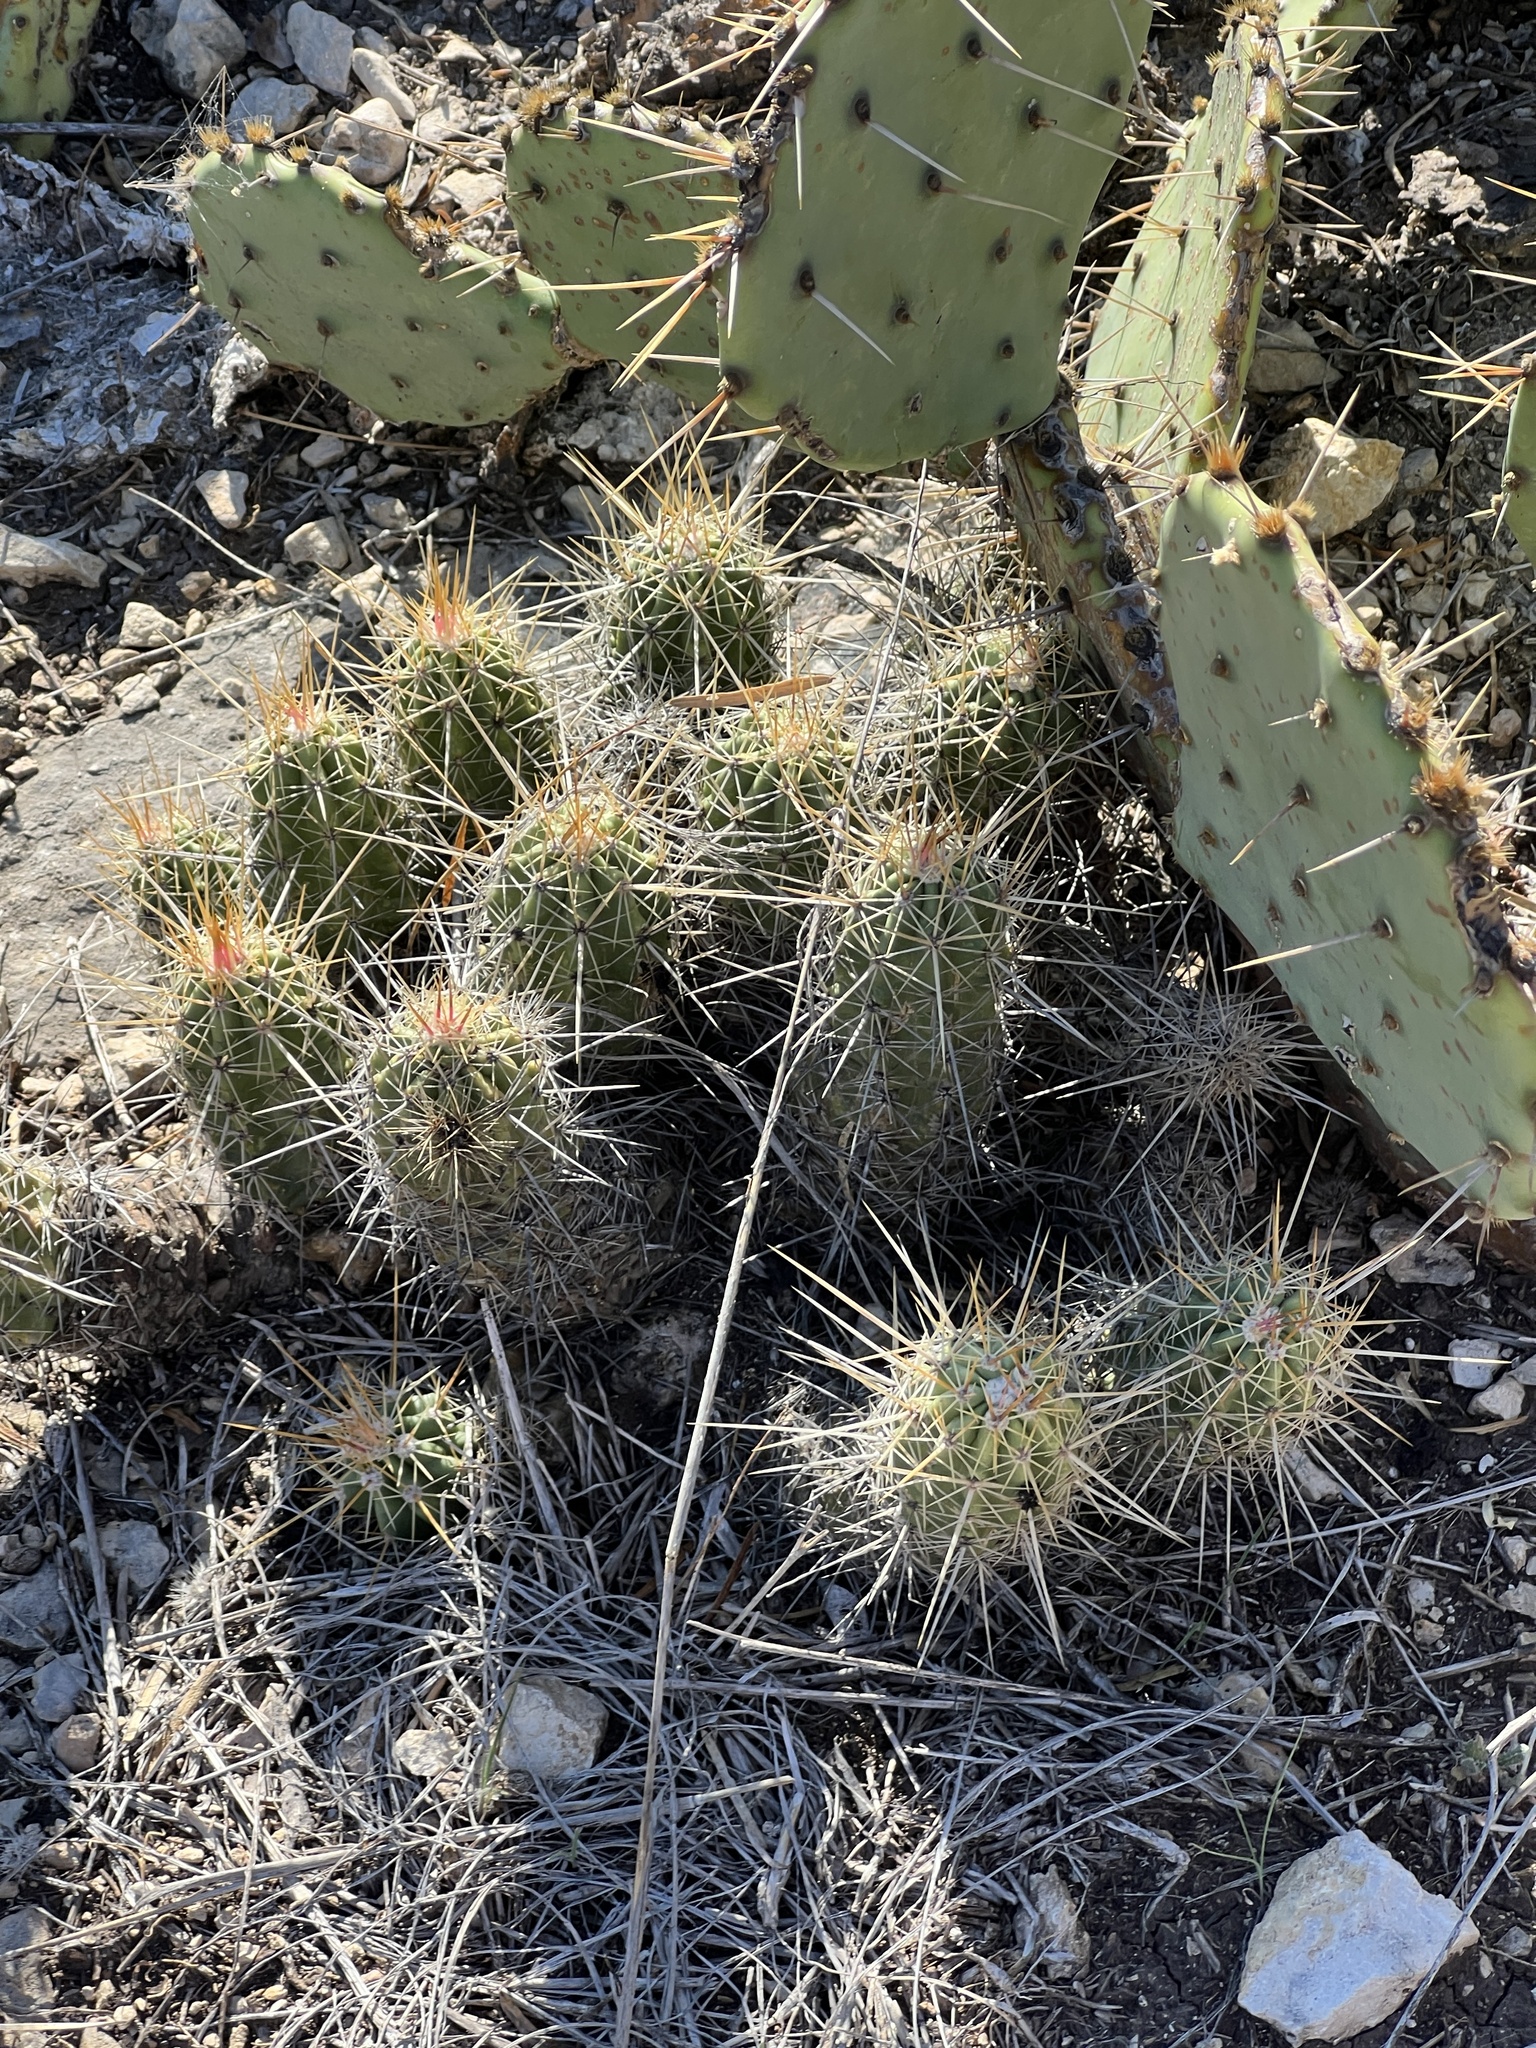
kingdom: Plantae
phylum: Tracheophyta
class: Magnoliopsida
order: Caryophyllales
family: Cactaceae
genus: Echinocereus
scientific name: Echinocereus enneacanthus
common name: Pitaya
